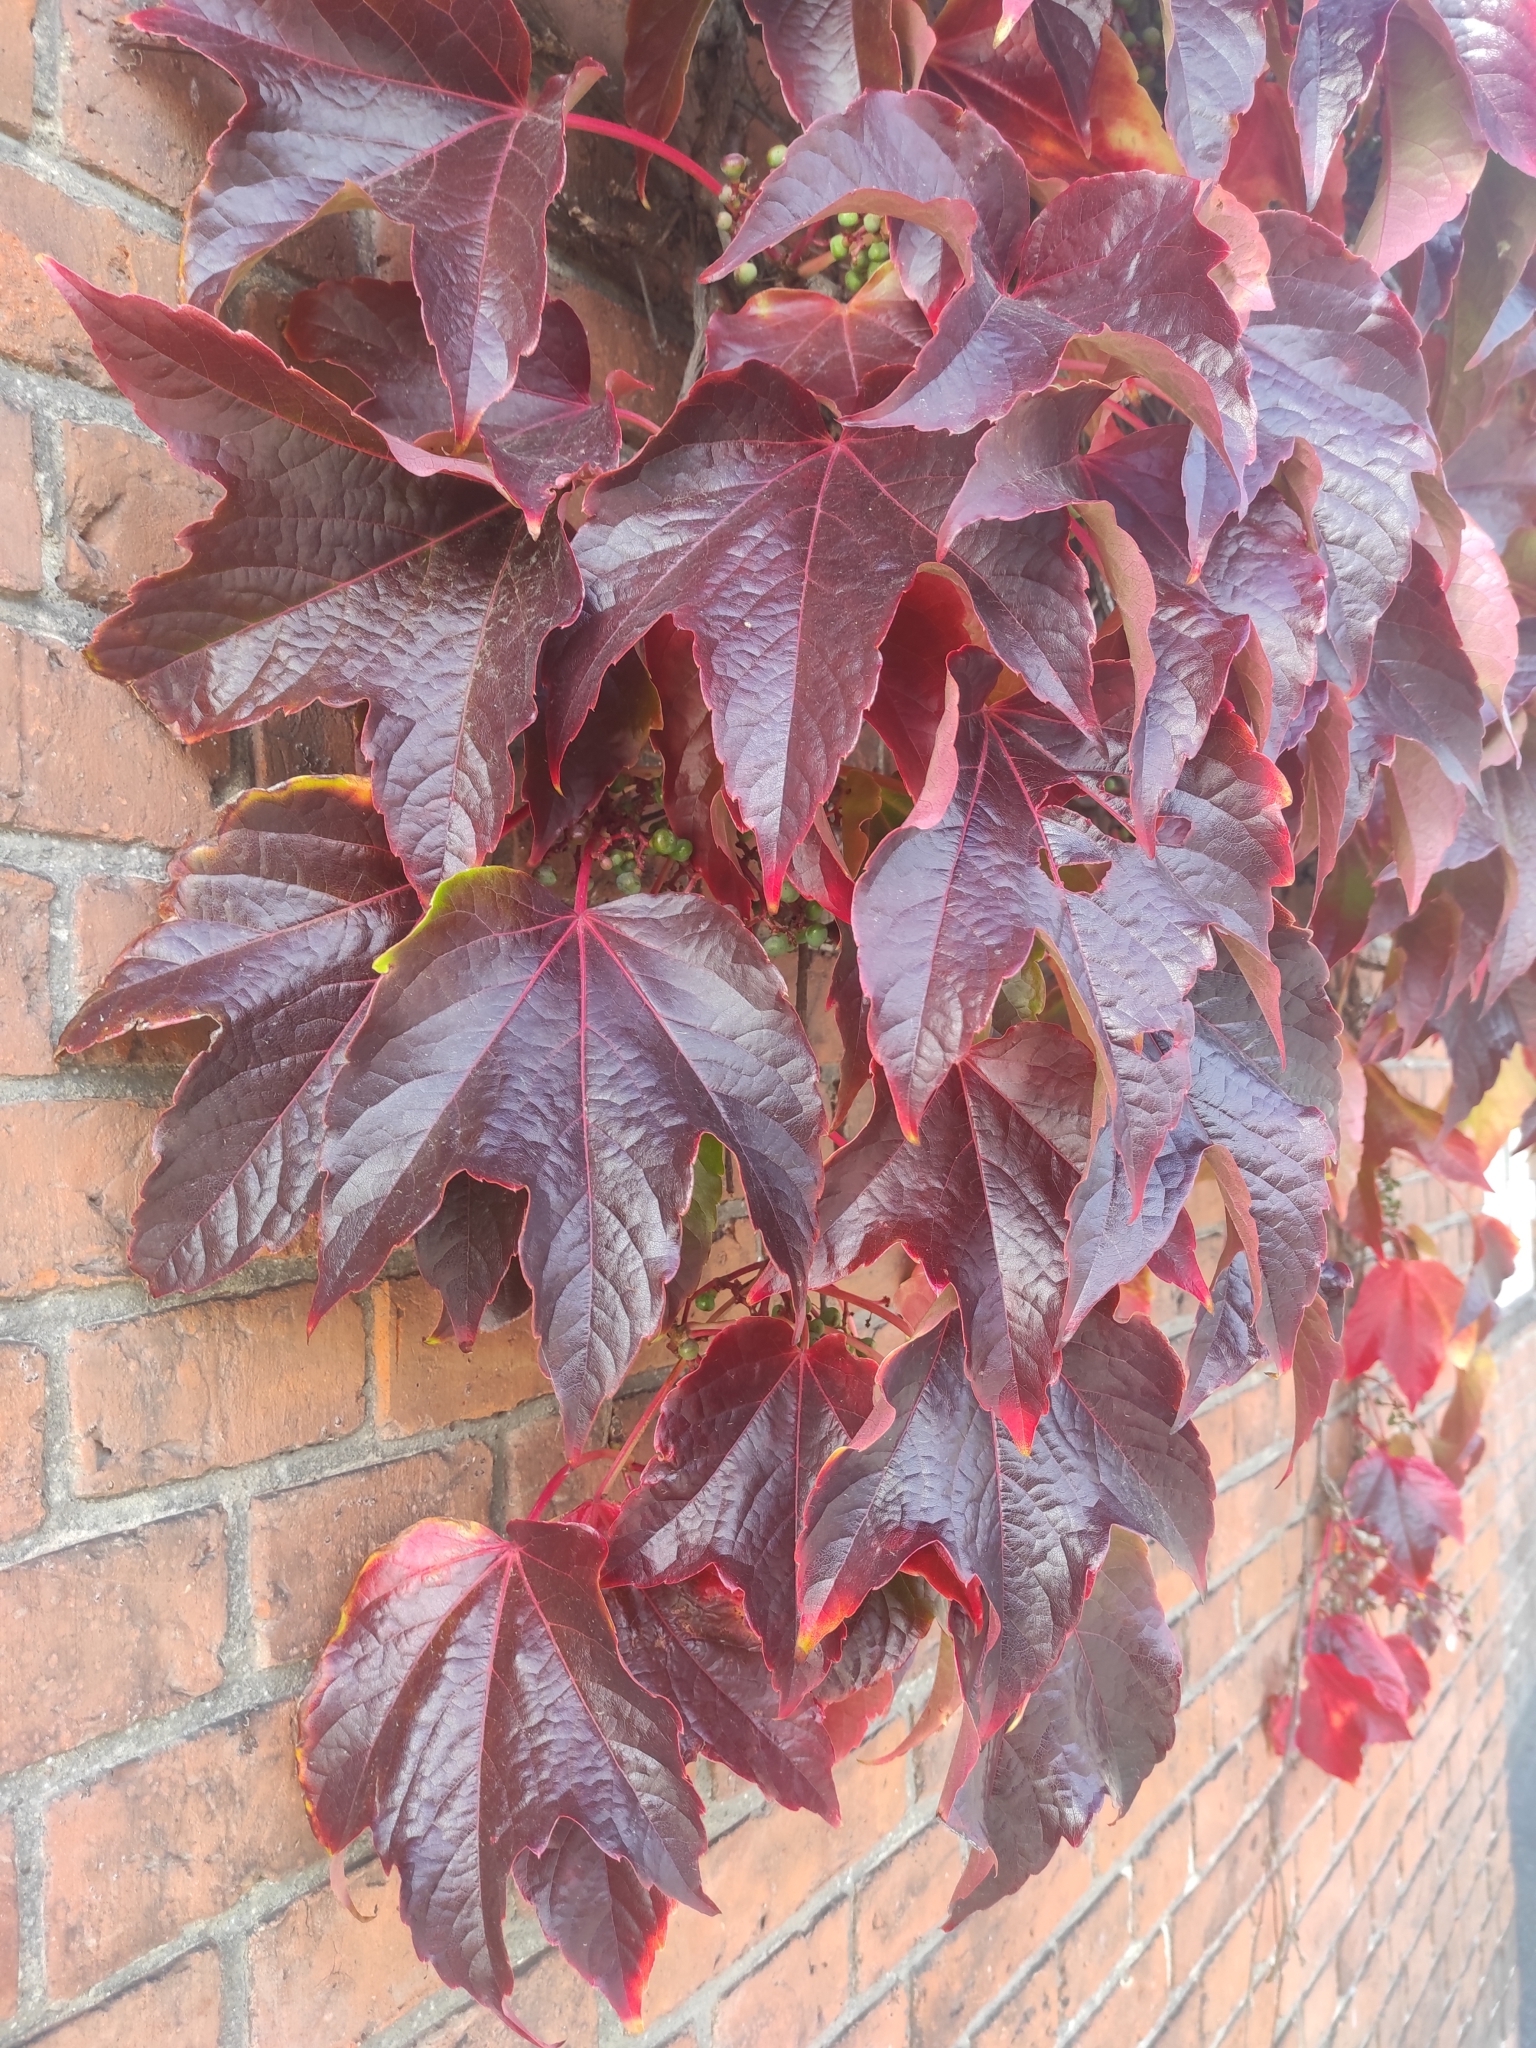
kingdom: Plantae
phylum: Tracheophyta
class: Magnoliopsida
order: Vitales
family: Vitaceae
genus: Parthenocissus
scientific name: Parthenocissus tricuspidata
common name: Boston ivy
